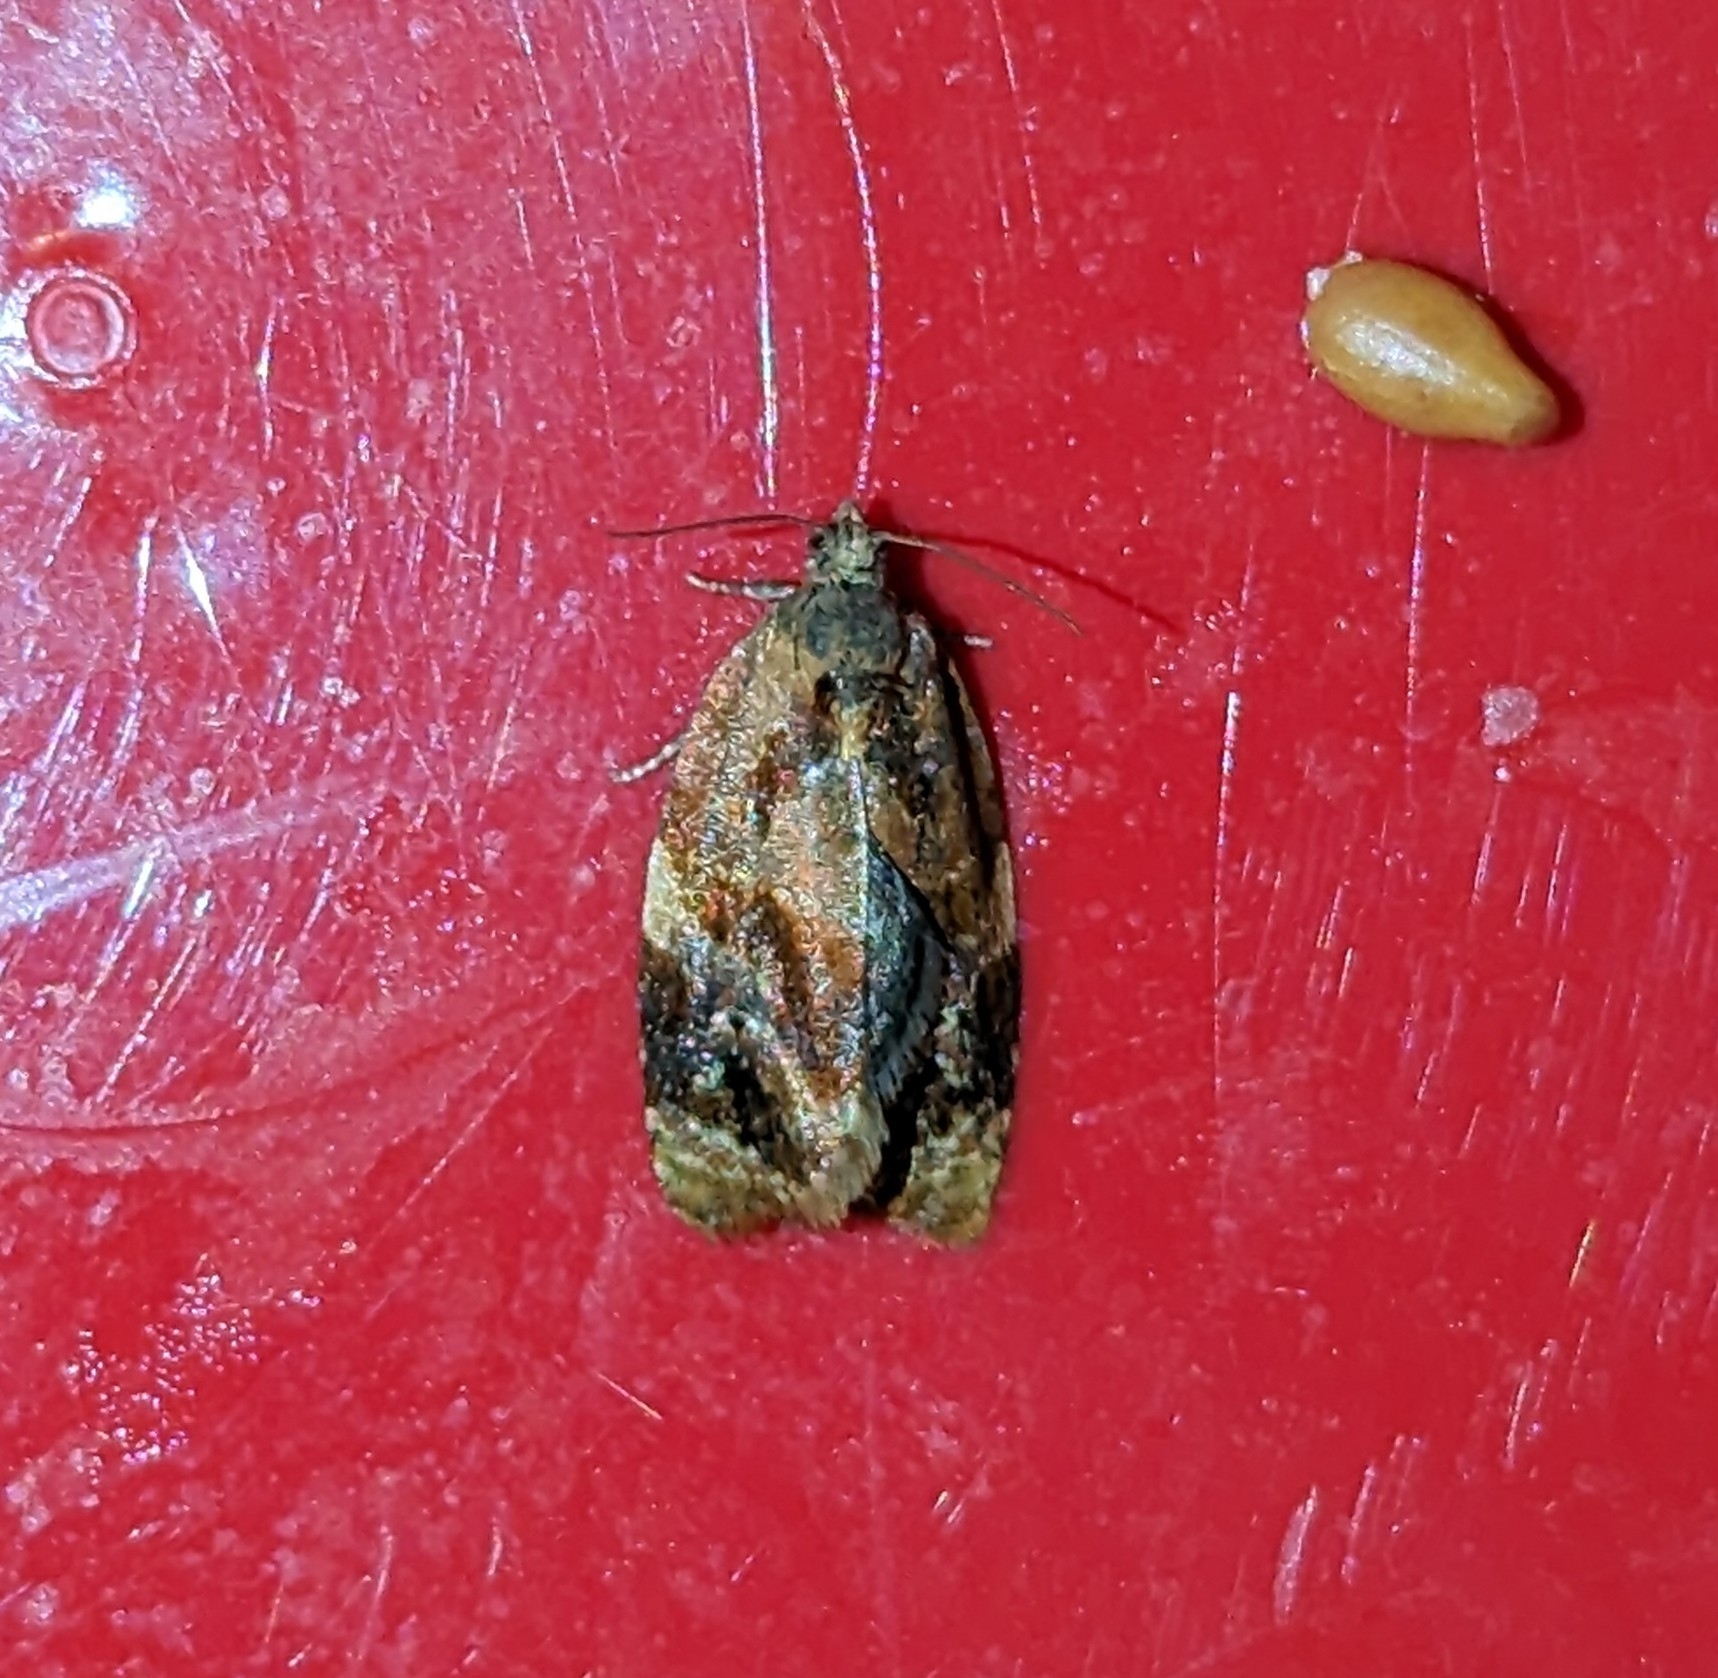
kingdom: Animalia
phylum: Arthropoda
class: Insecta
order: Lepidoptera
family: Tortricidae
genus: Ditula
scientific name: Ditula angustiorana
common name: Red-barred tortrix
